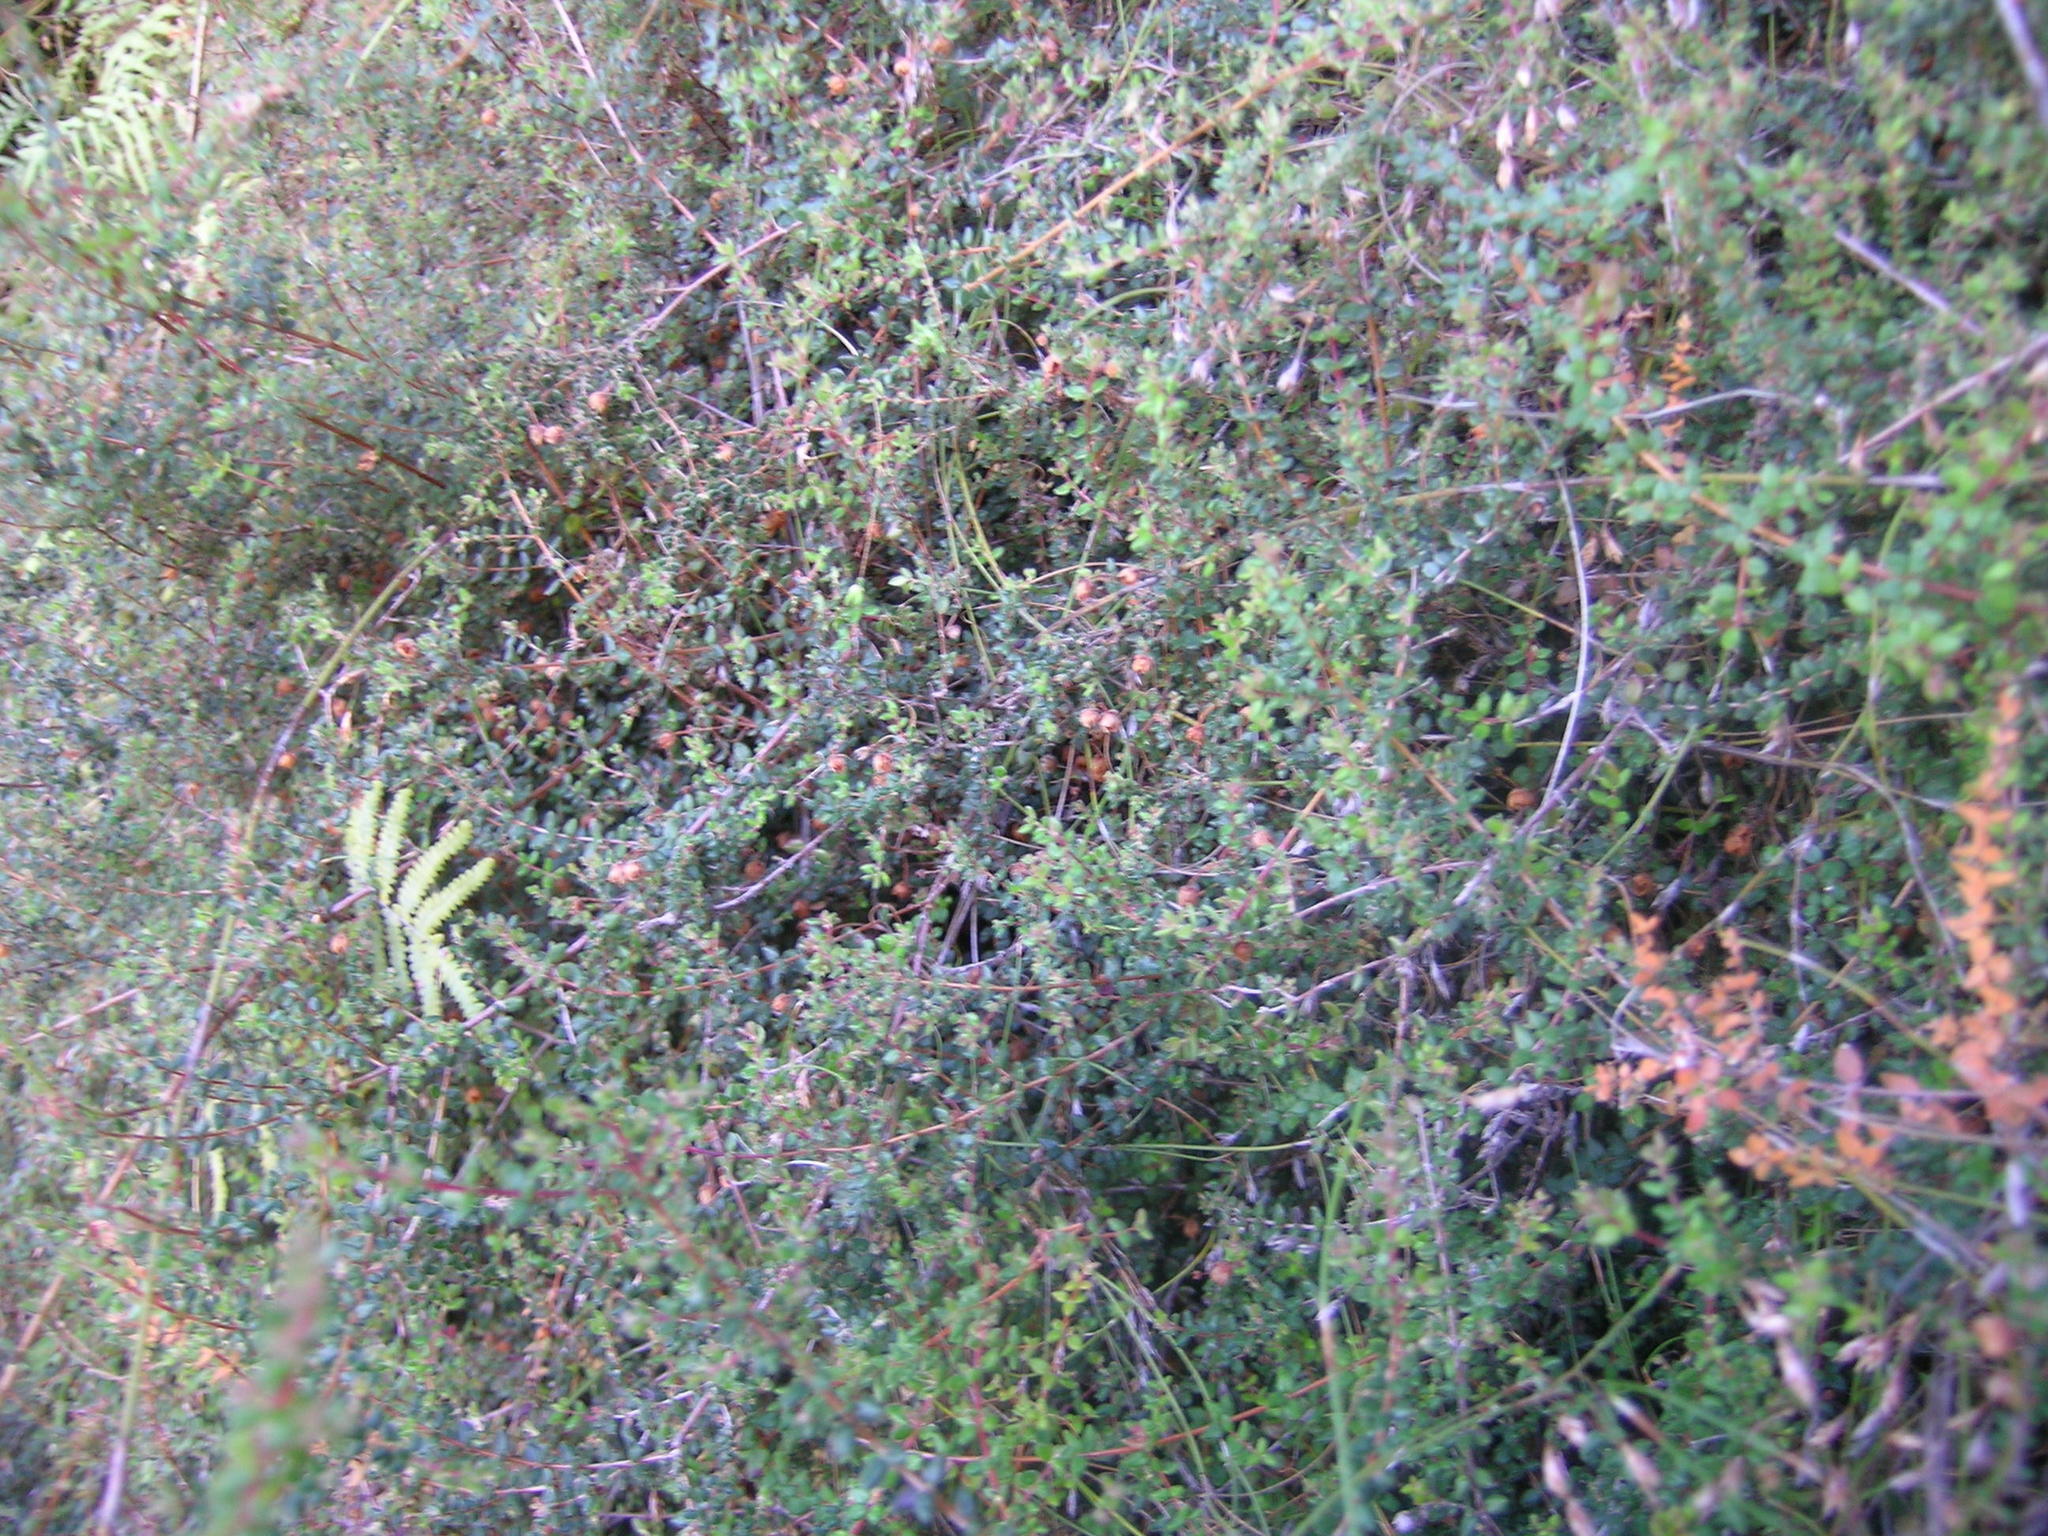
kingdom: Plantae
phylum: Tracheophyta
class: Magnoliopsida
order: Ericales
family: Ericaceae
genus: Erica
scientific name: Erica turneri
